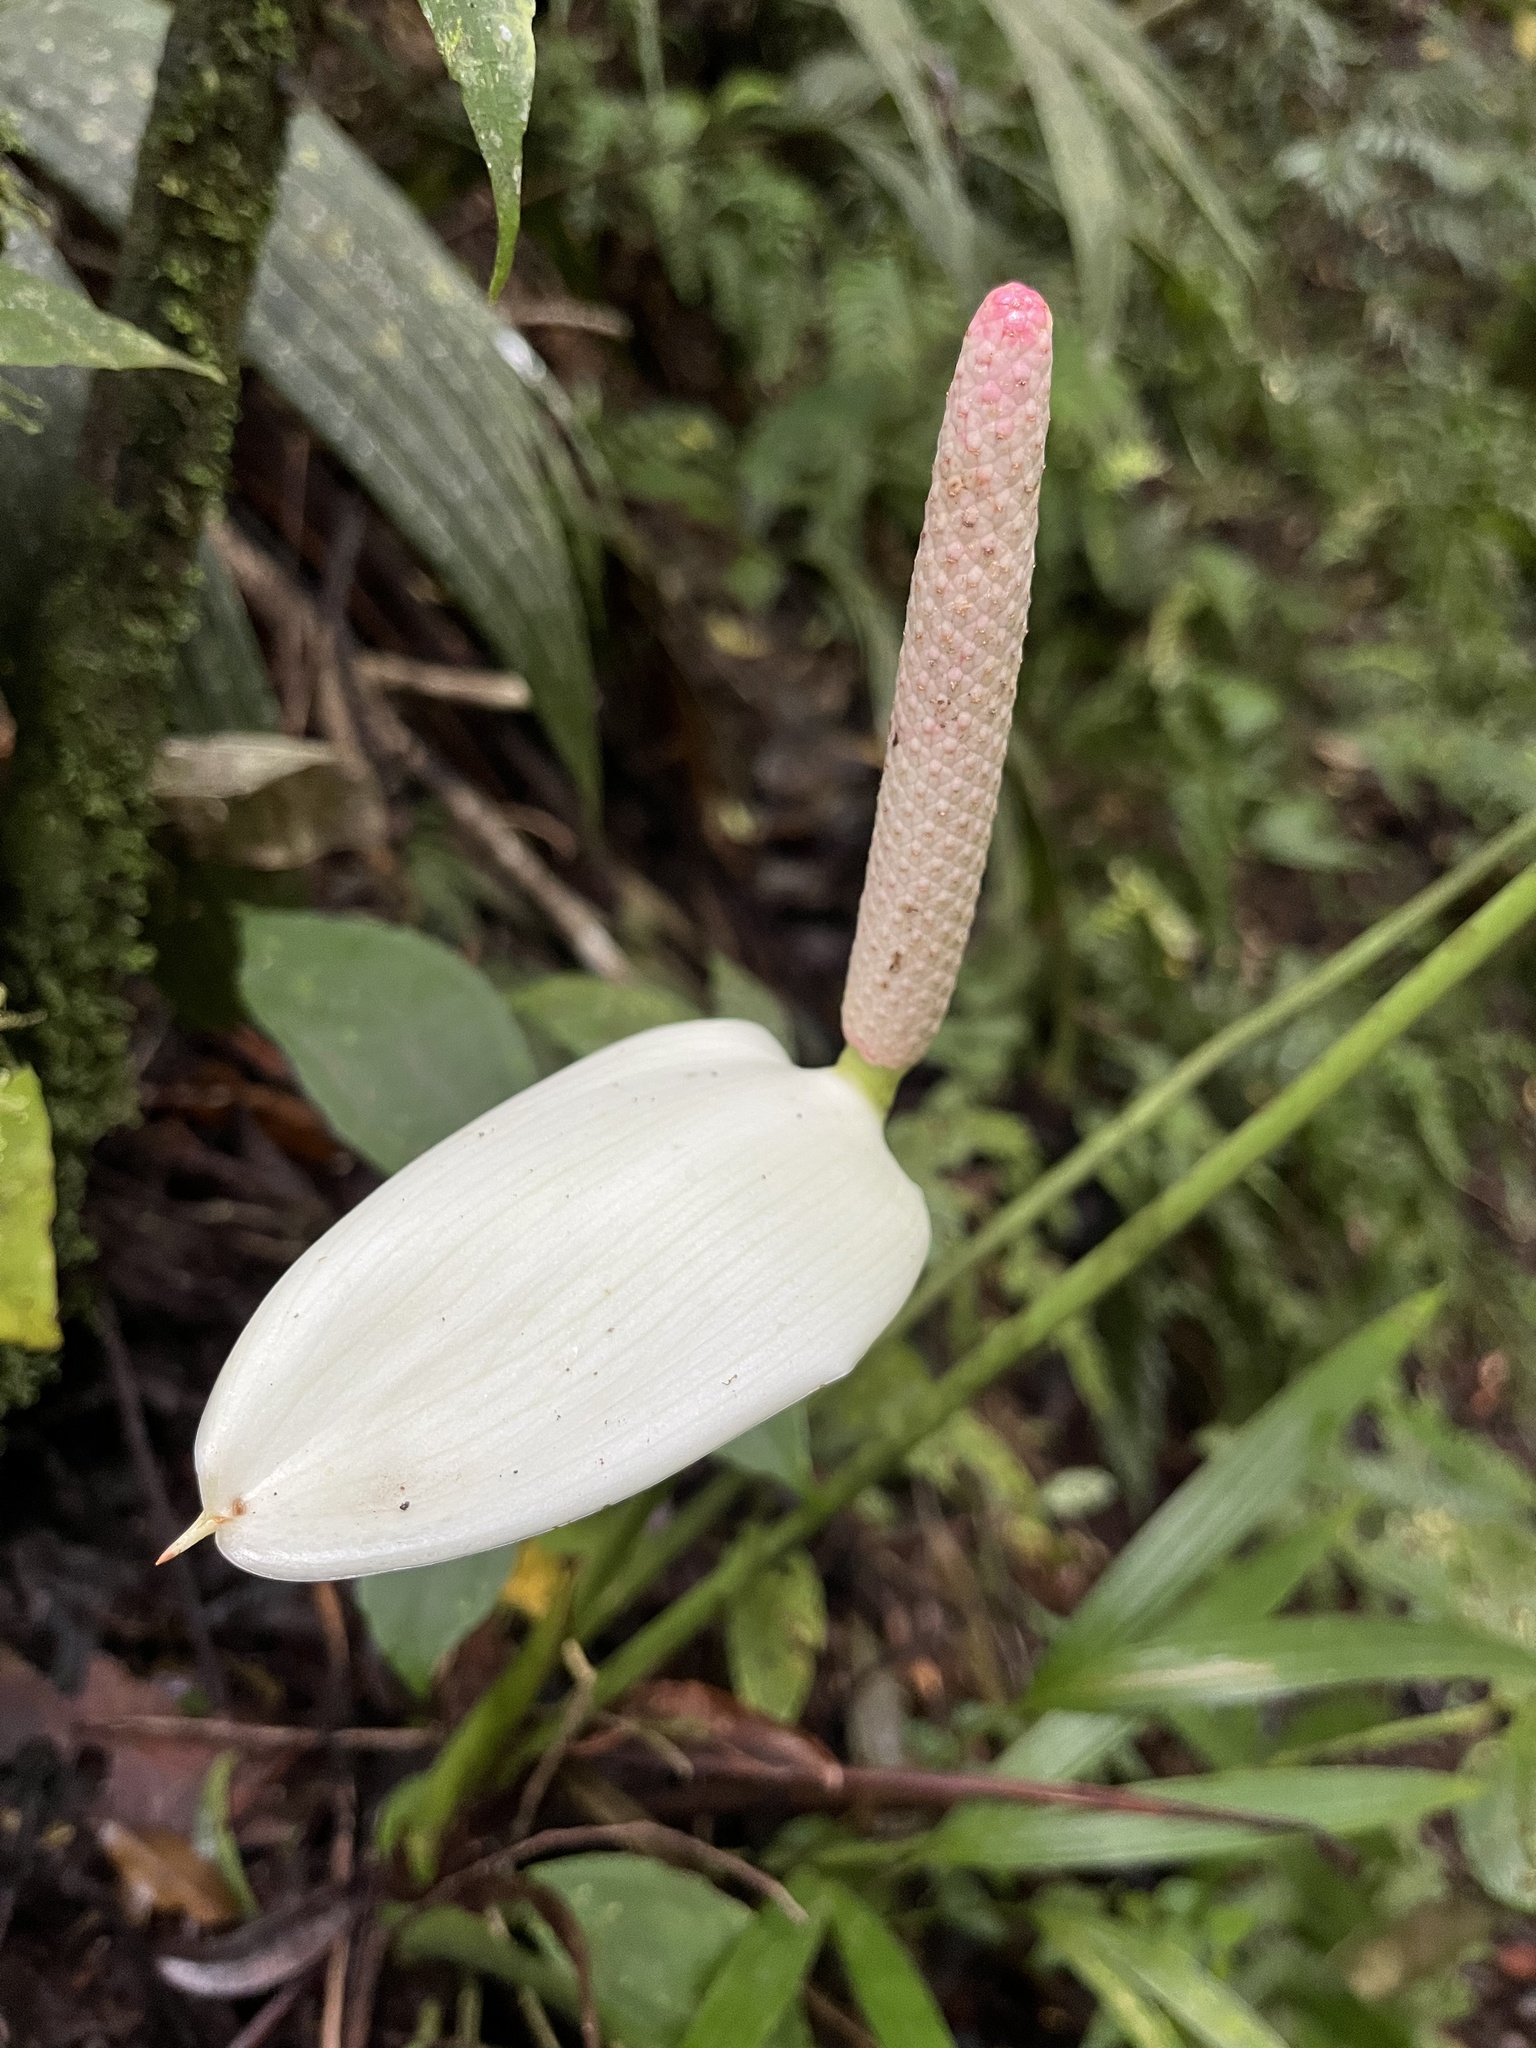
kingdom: Plantae
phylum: Tracheophyta
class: Liliopsida
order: Alismatales
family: Araceae
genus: Anthurium
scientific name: Anthurium monteverdense
